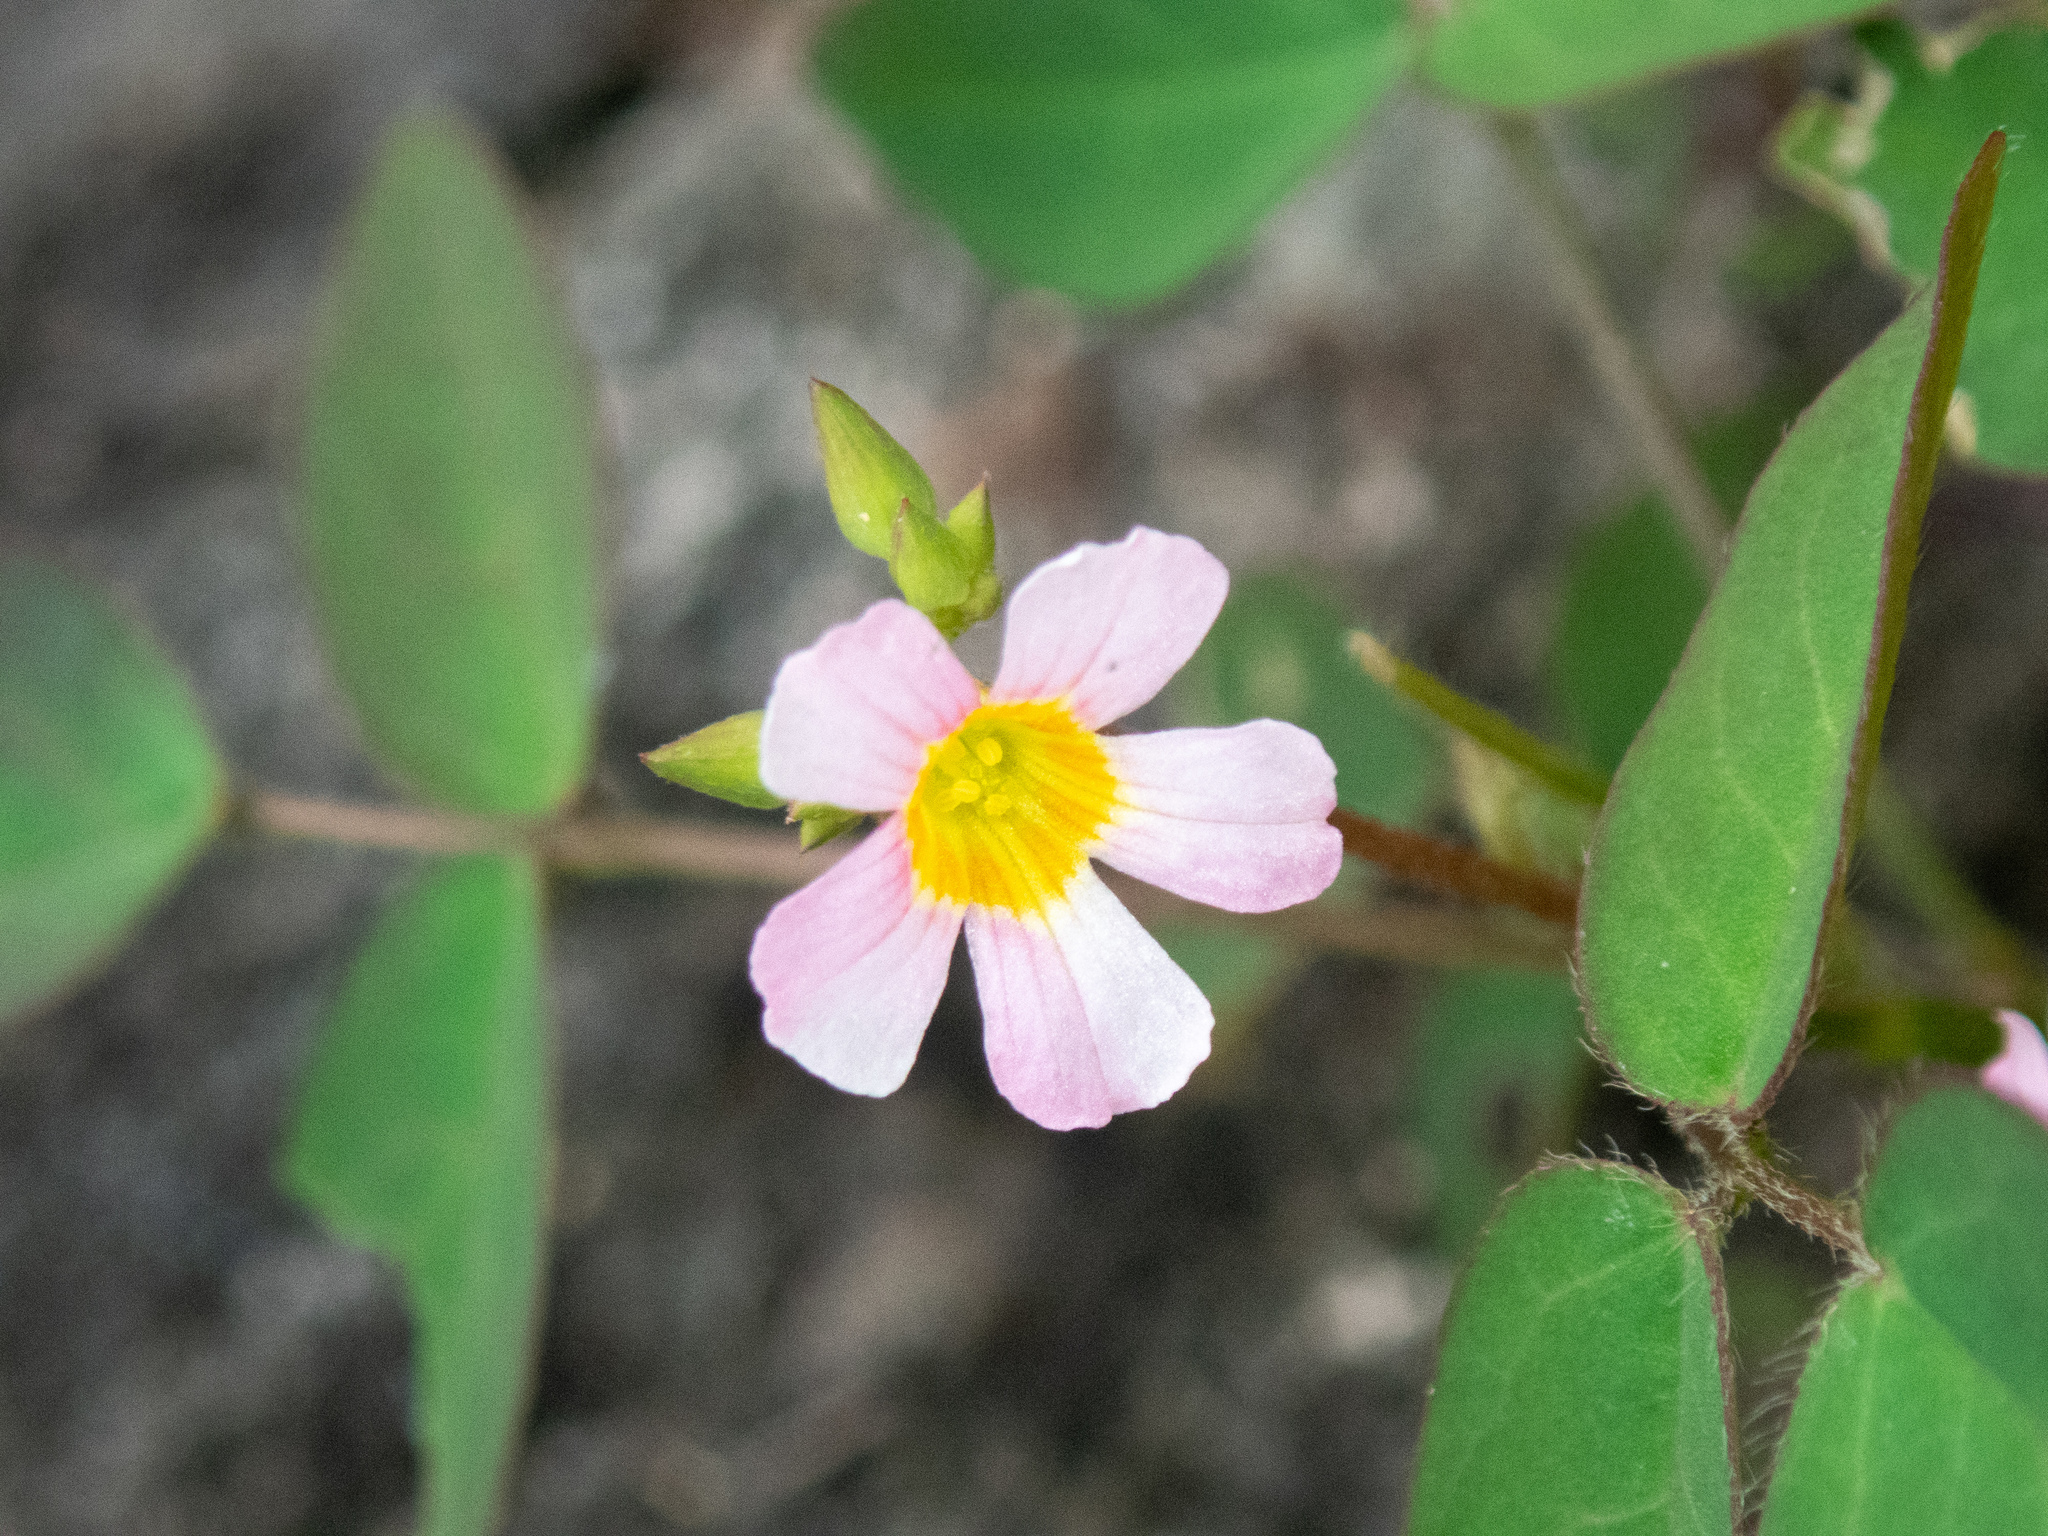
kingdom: Plantae
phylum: Tracheophyta
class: Magnoliopsida
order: Oxalidales
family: Oxalidaceae
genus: Oxalis
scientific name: Oxalis barrelieri
